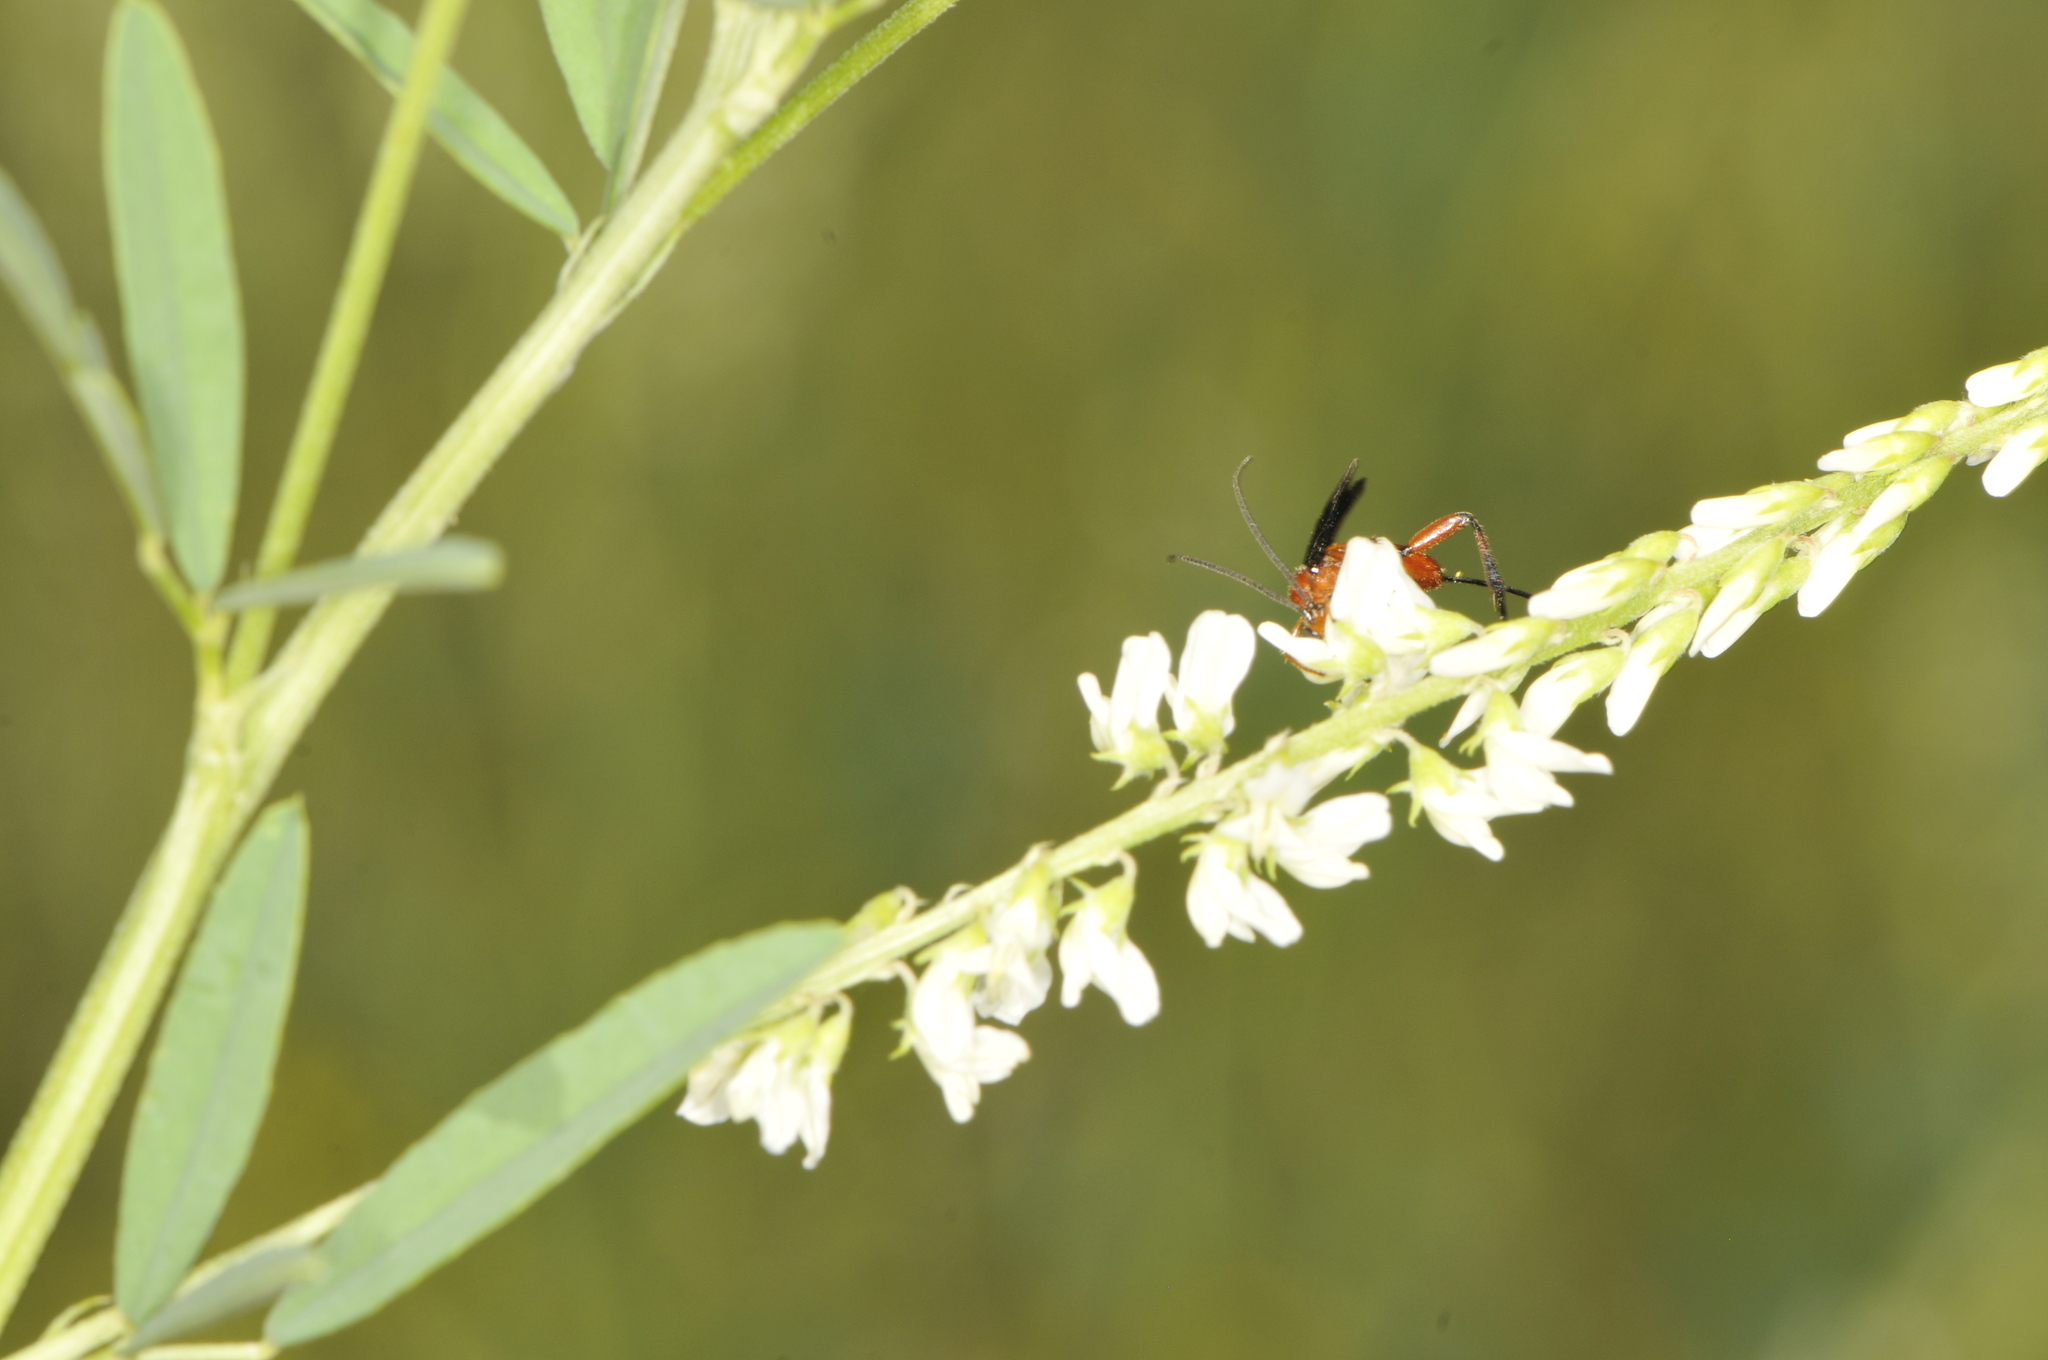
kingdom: Plantae
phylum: Tracheophyta
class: Magnoliopsida
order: Fabales
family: Fabaceae
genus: Melilotus
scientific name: Melilotus albus
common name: White melilot
